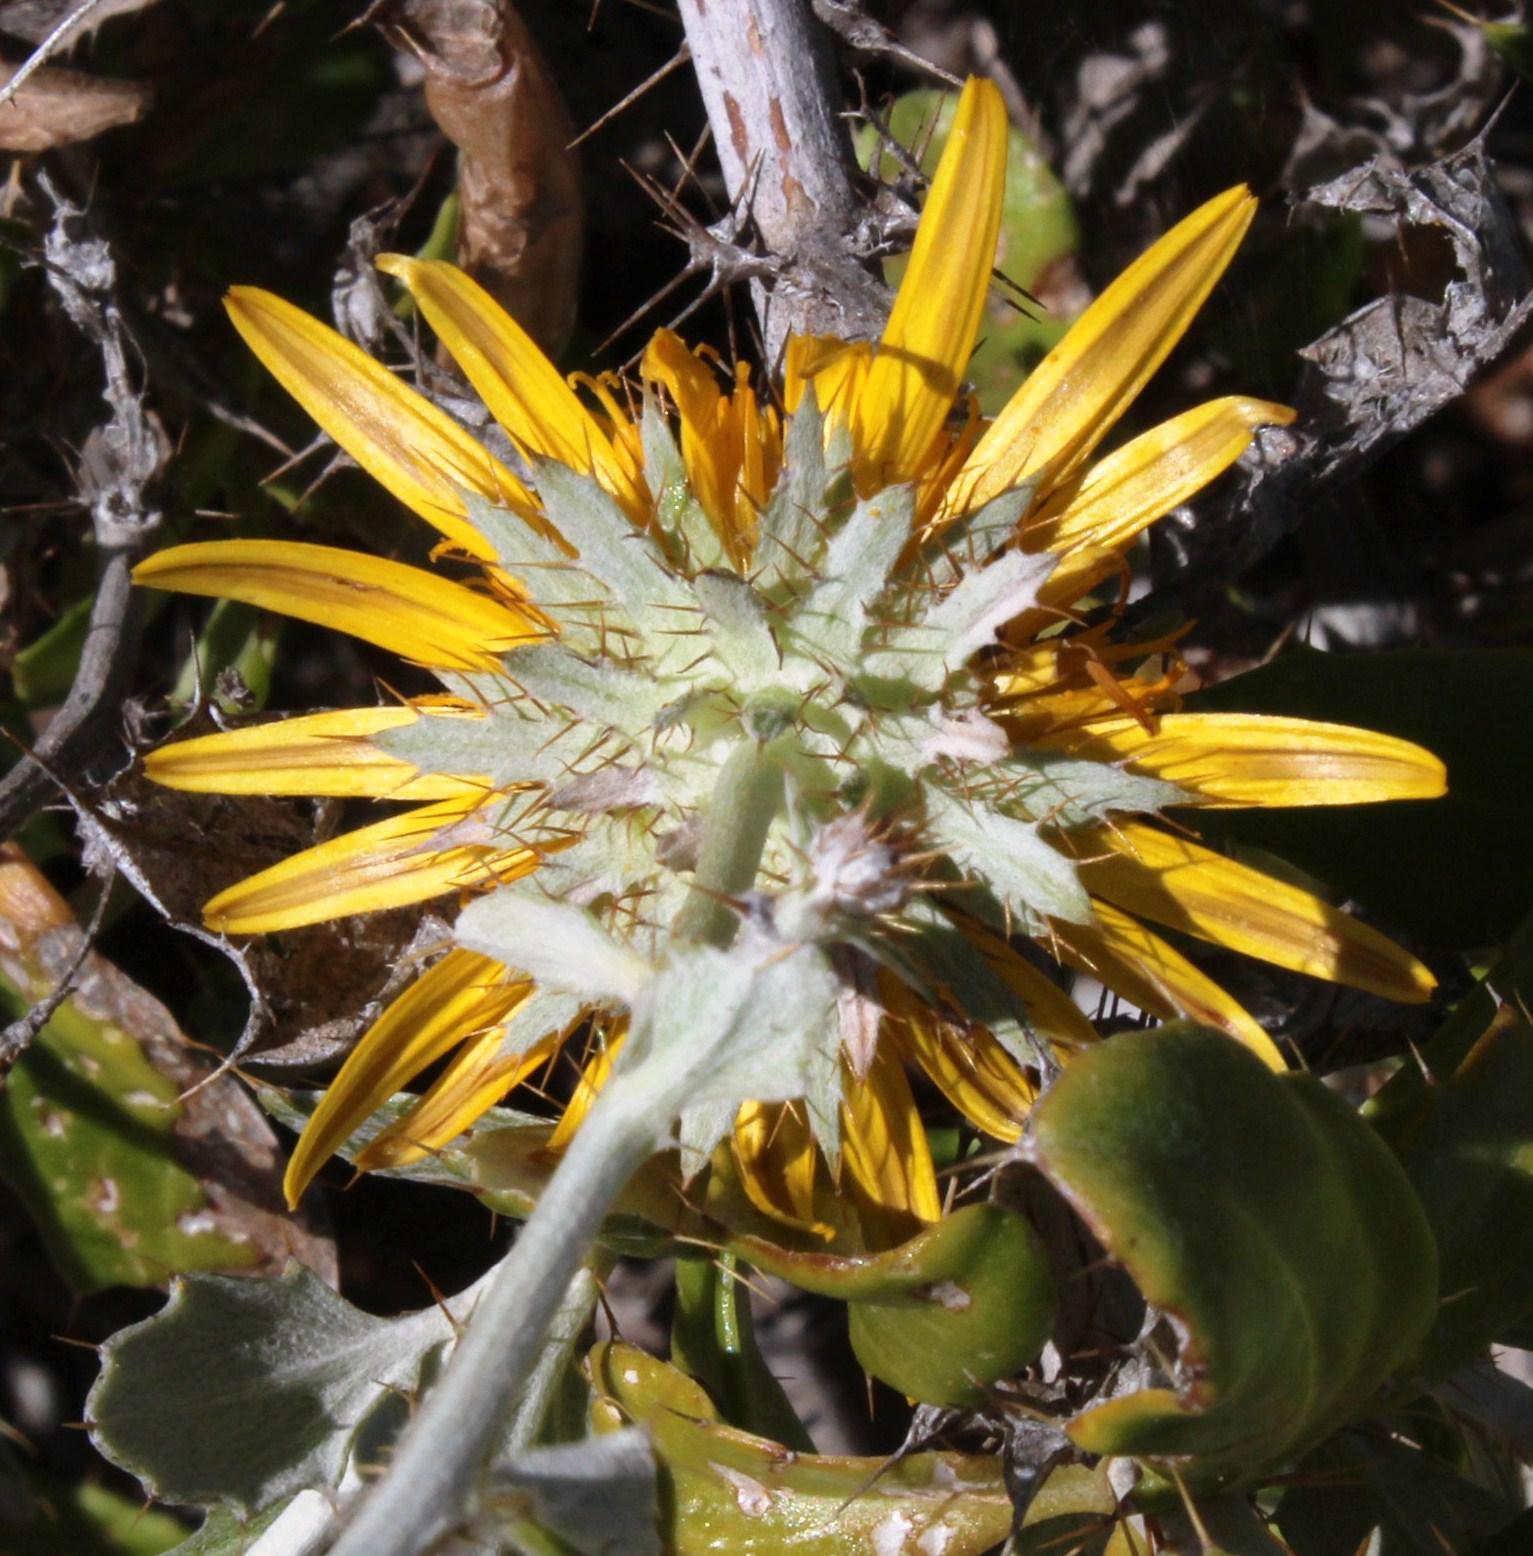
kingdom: Plantae
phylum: Tracheophyta
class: Magnoliopsida
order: Asterales
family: Asteraceae
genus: Berkheya
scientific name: Berkheya fruticosa
